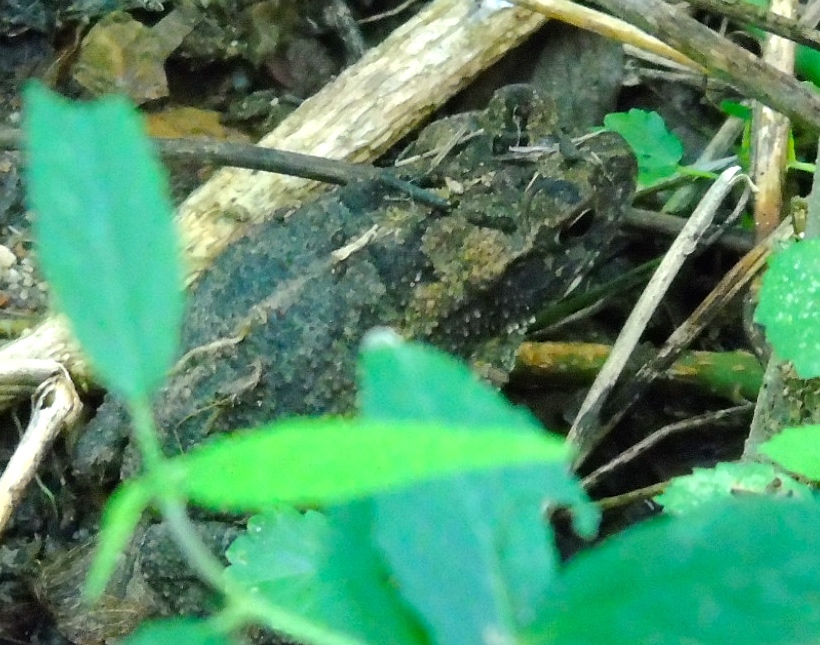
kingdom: Animalia
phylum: Chordata
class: Amphibia
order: Anura
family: Bufonidae
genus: Incilius
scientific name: Incilius mazatlanensis
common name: Sinaloa toad
